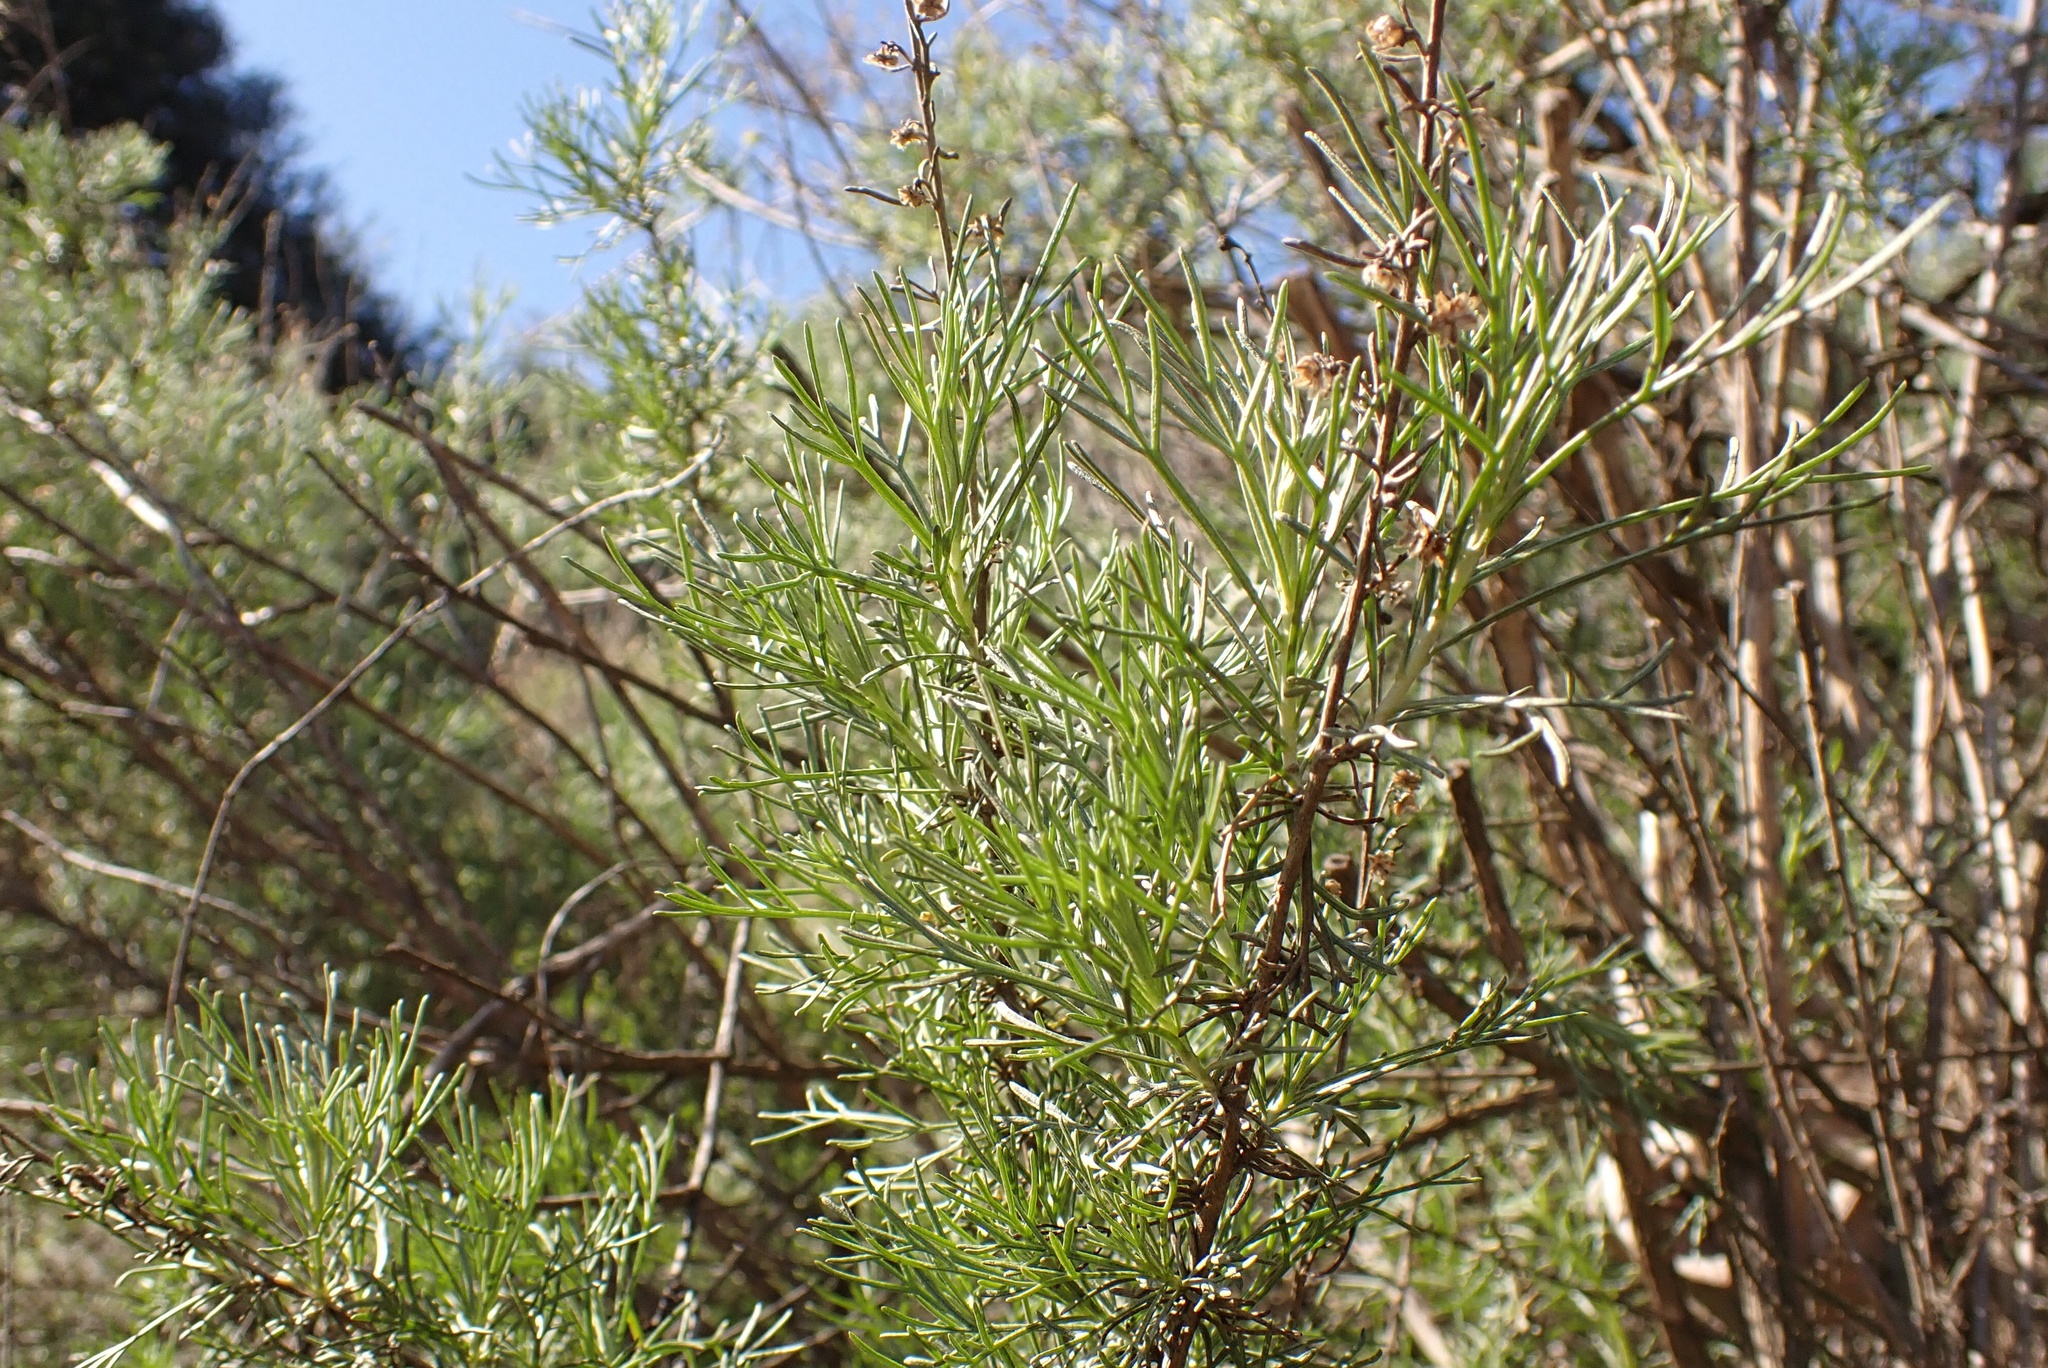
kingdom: Plantae
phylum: Tracheophyta
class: Magnoliopsida
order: Asterales
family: Asteraceae
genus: Artemisia
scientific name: Artemisia californica
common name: California sagebrush
